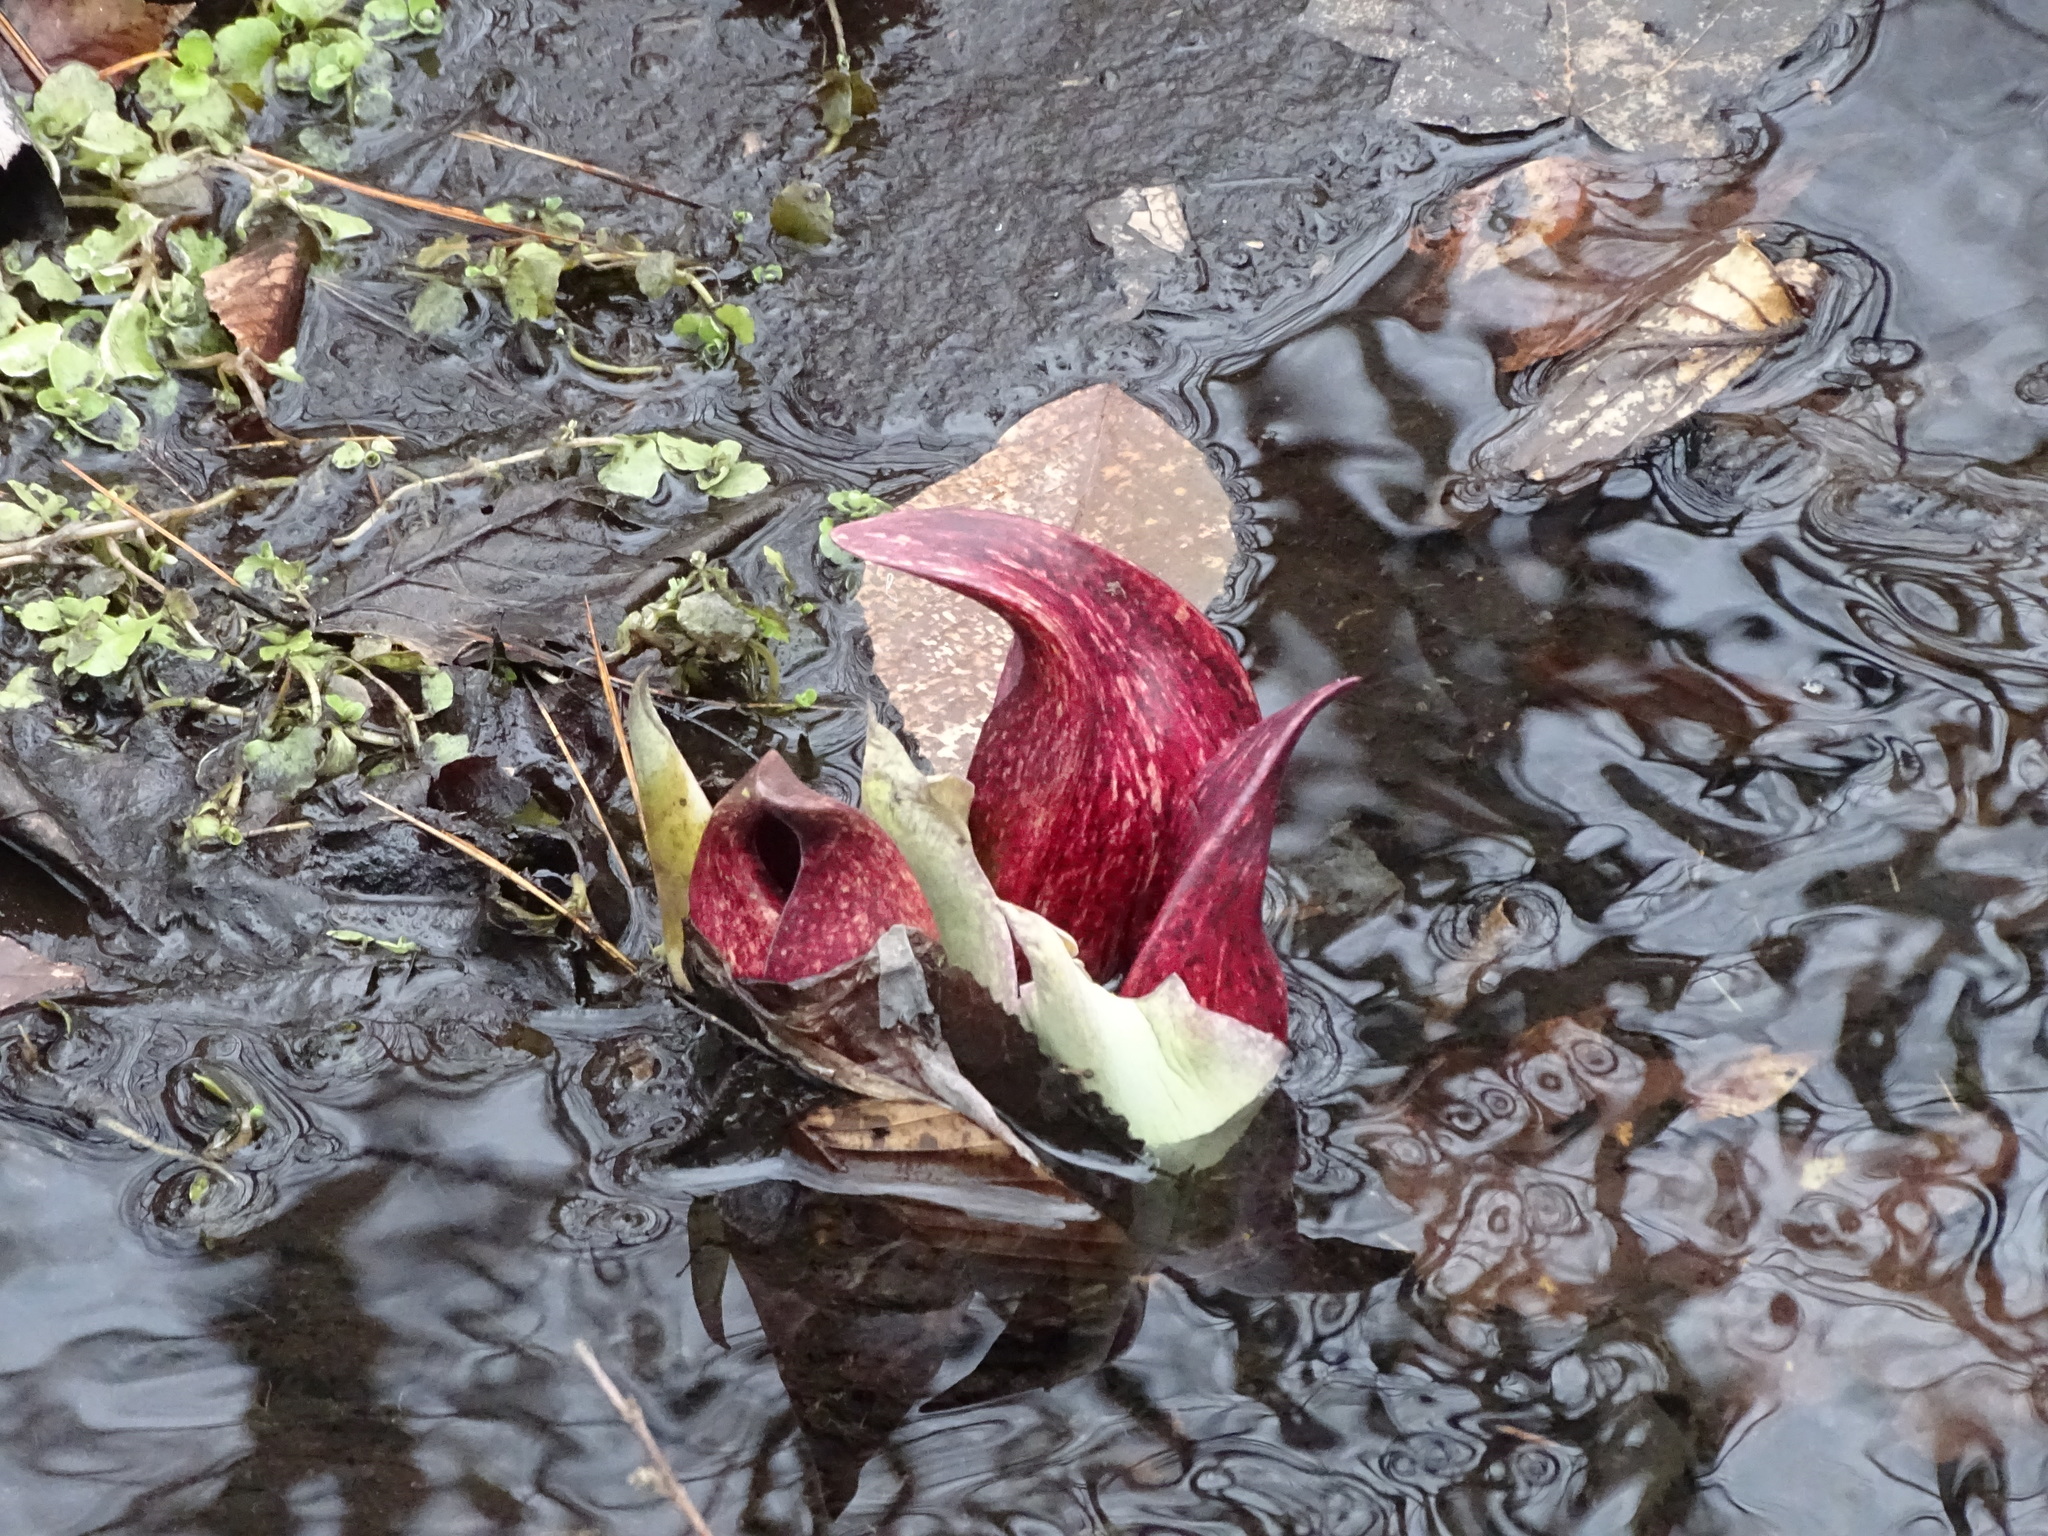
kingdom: Plantae
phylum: Tracheophyta
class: Liliopsida
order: Alismatales
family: Araceae
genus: Symplocarpus
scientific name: Symplocarpus foetidus
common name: Eastern skunk cabbage
